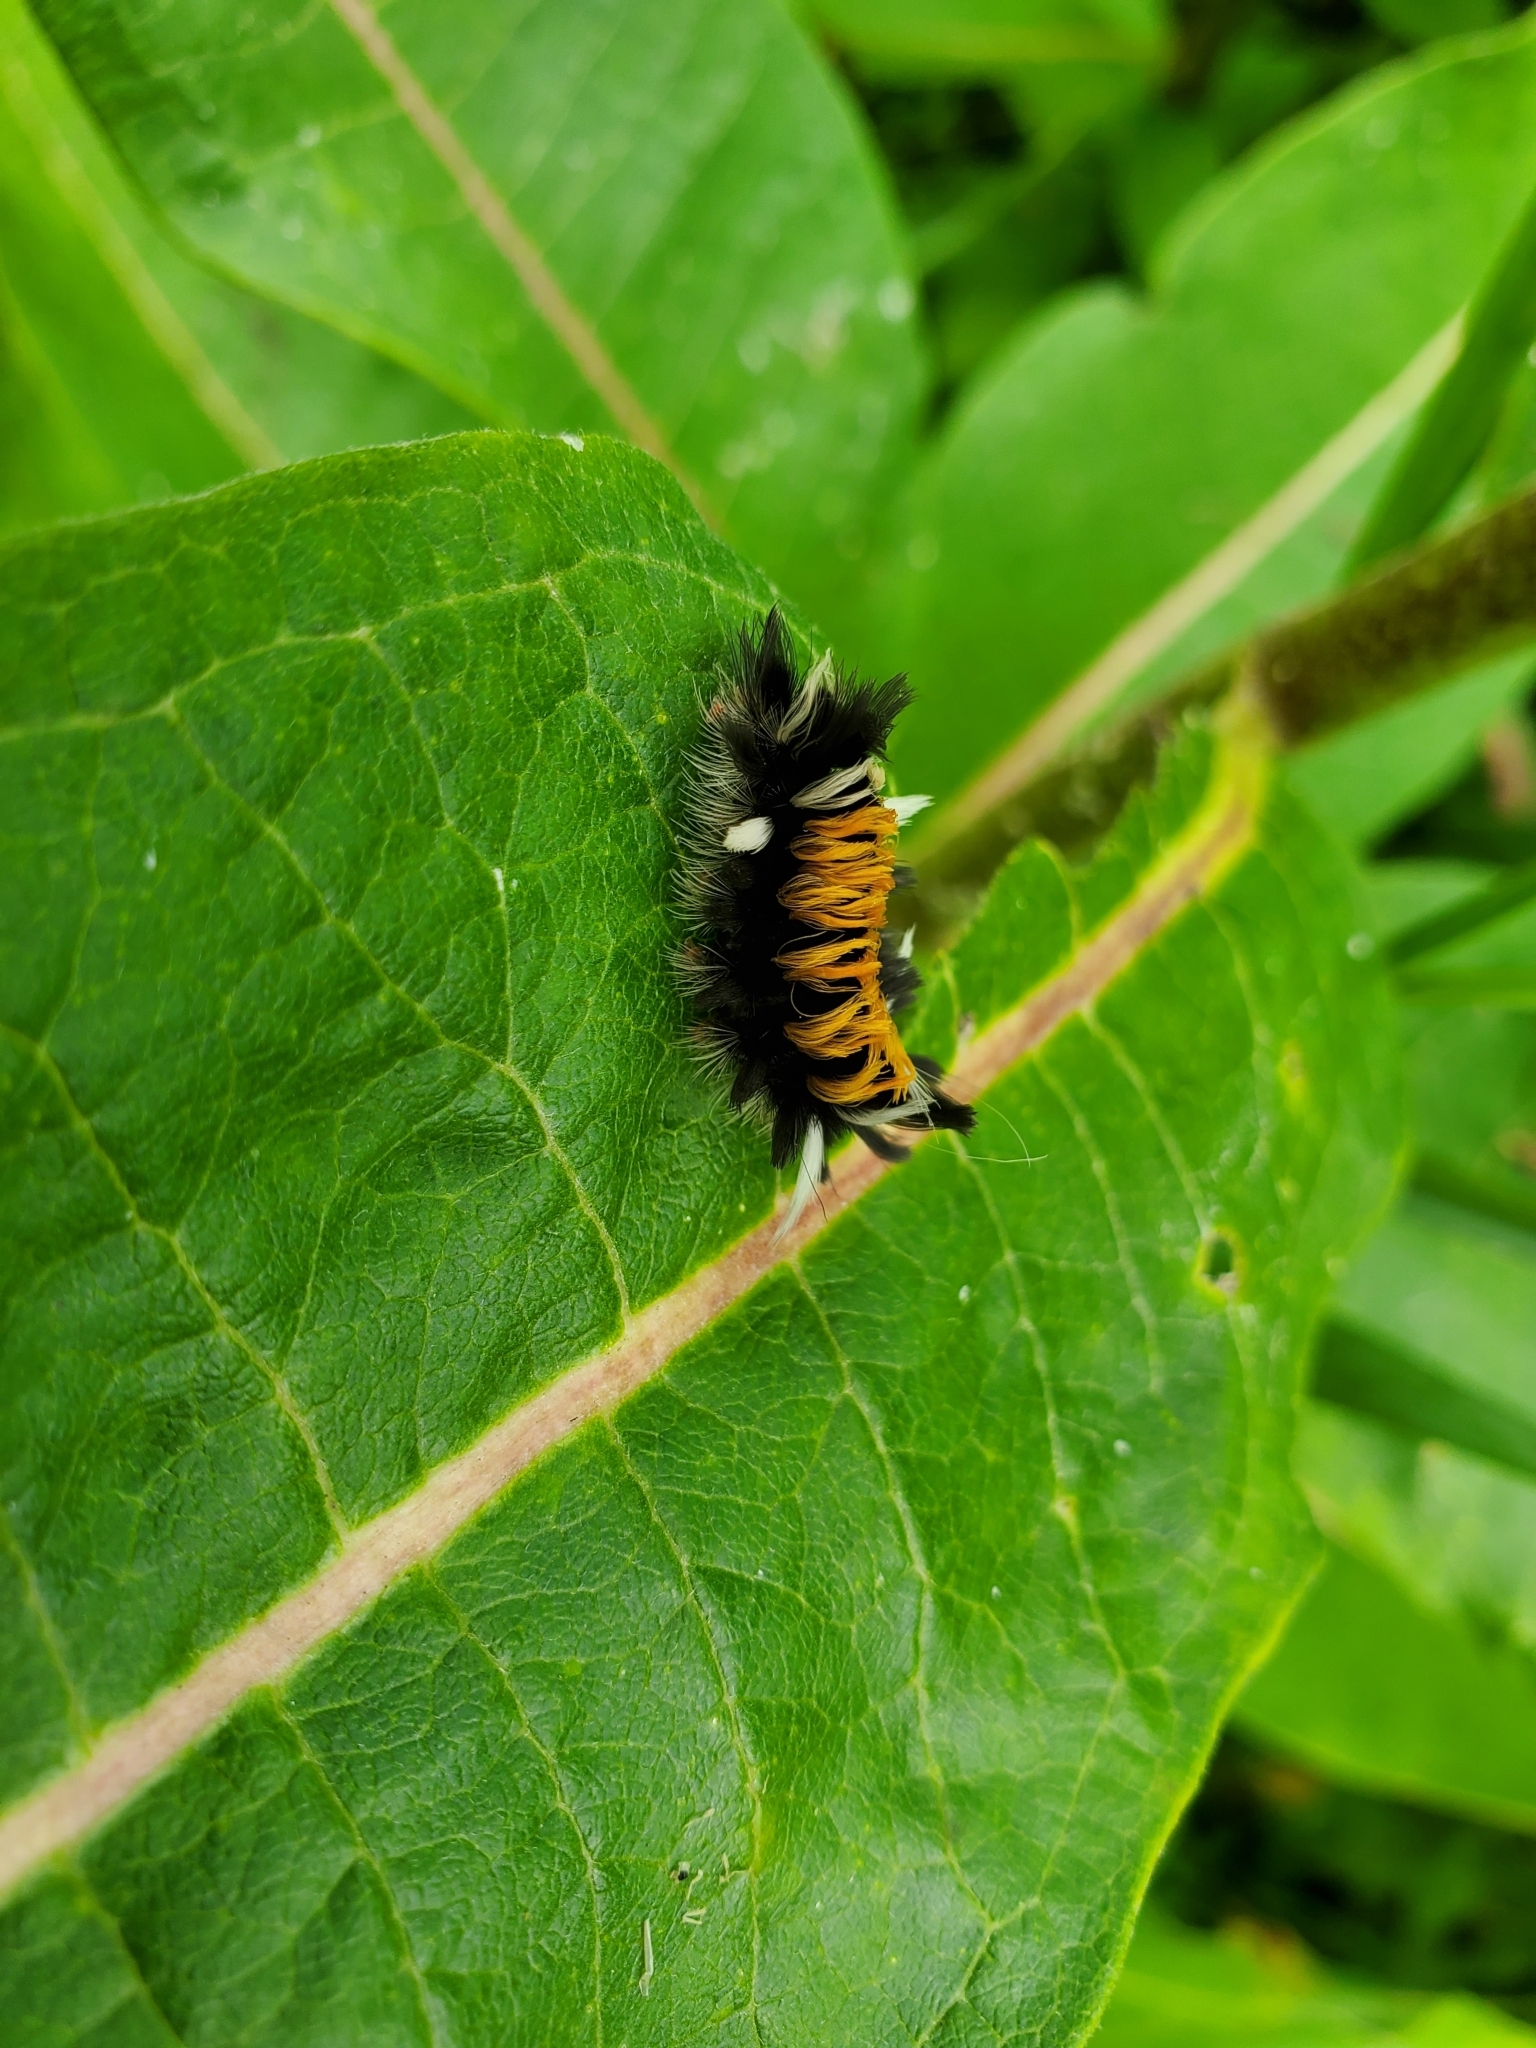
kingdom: Animalia
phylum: Arthropoda
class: Insecta
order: Lepidoptera
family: Erebidae
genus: Euchaetes
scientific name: Euchaetes egle
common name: Milkweed tussock moth
